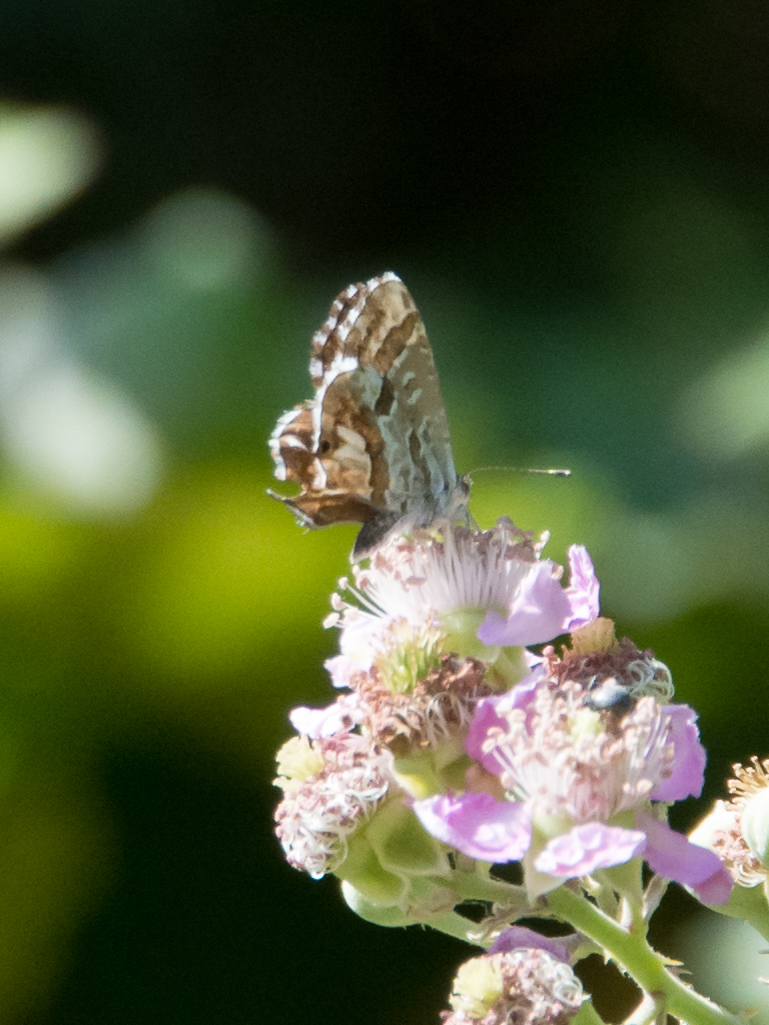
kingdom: Animalia
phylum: Arthropoda
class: Insecta
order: Lepidoptera
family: Lycaenidae
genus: Cacyreus
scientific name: Cacyreus marshalli
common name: Geranium bronze
